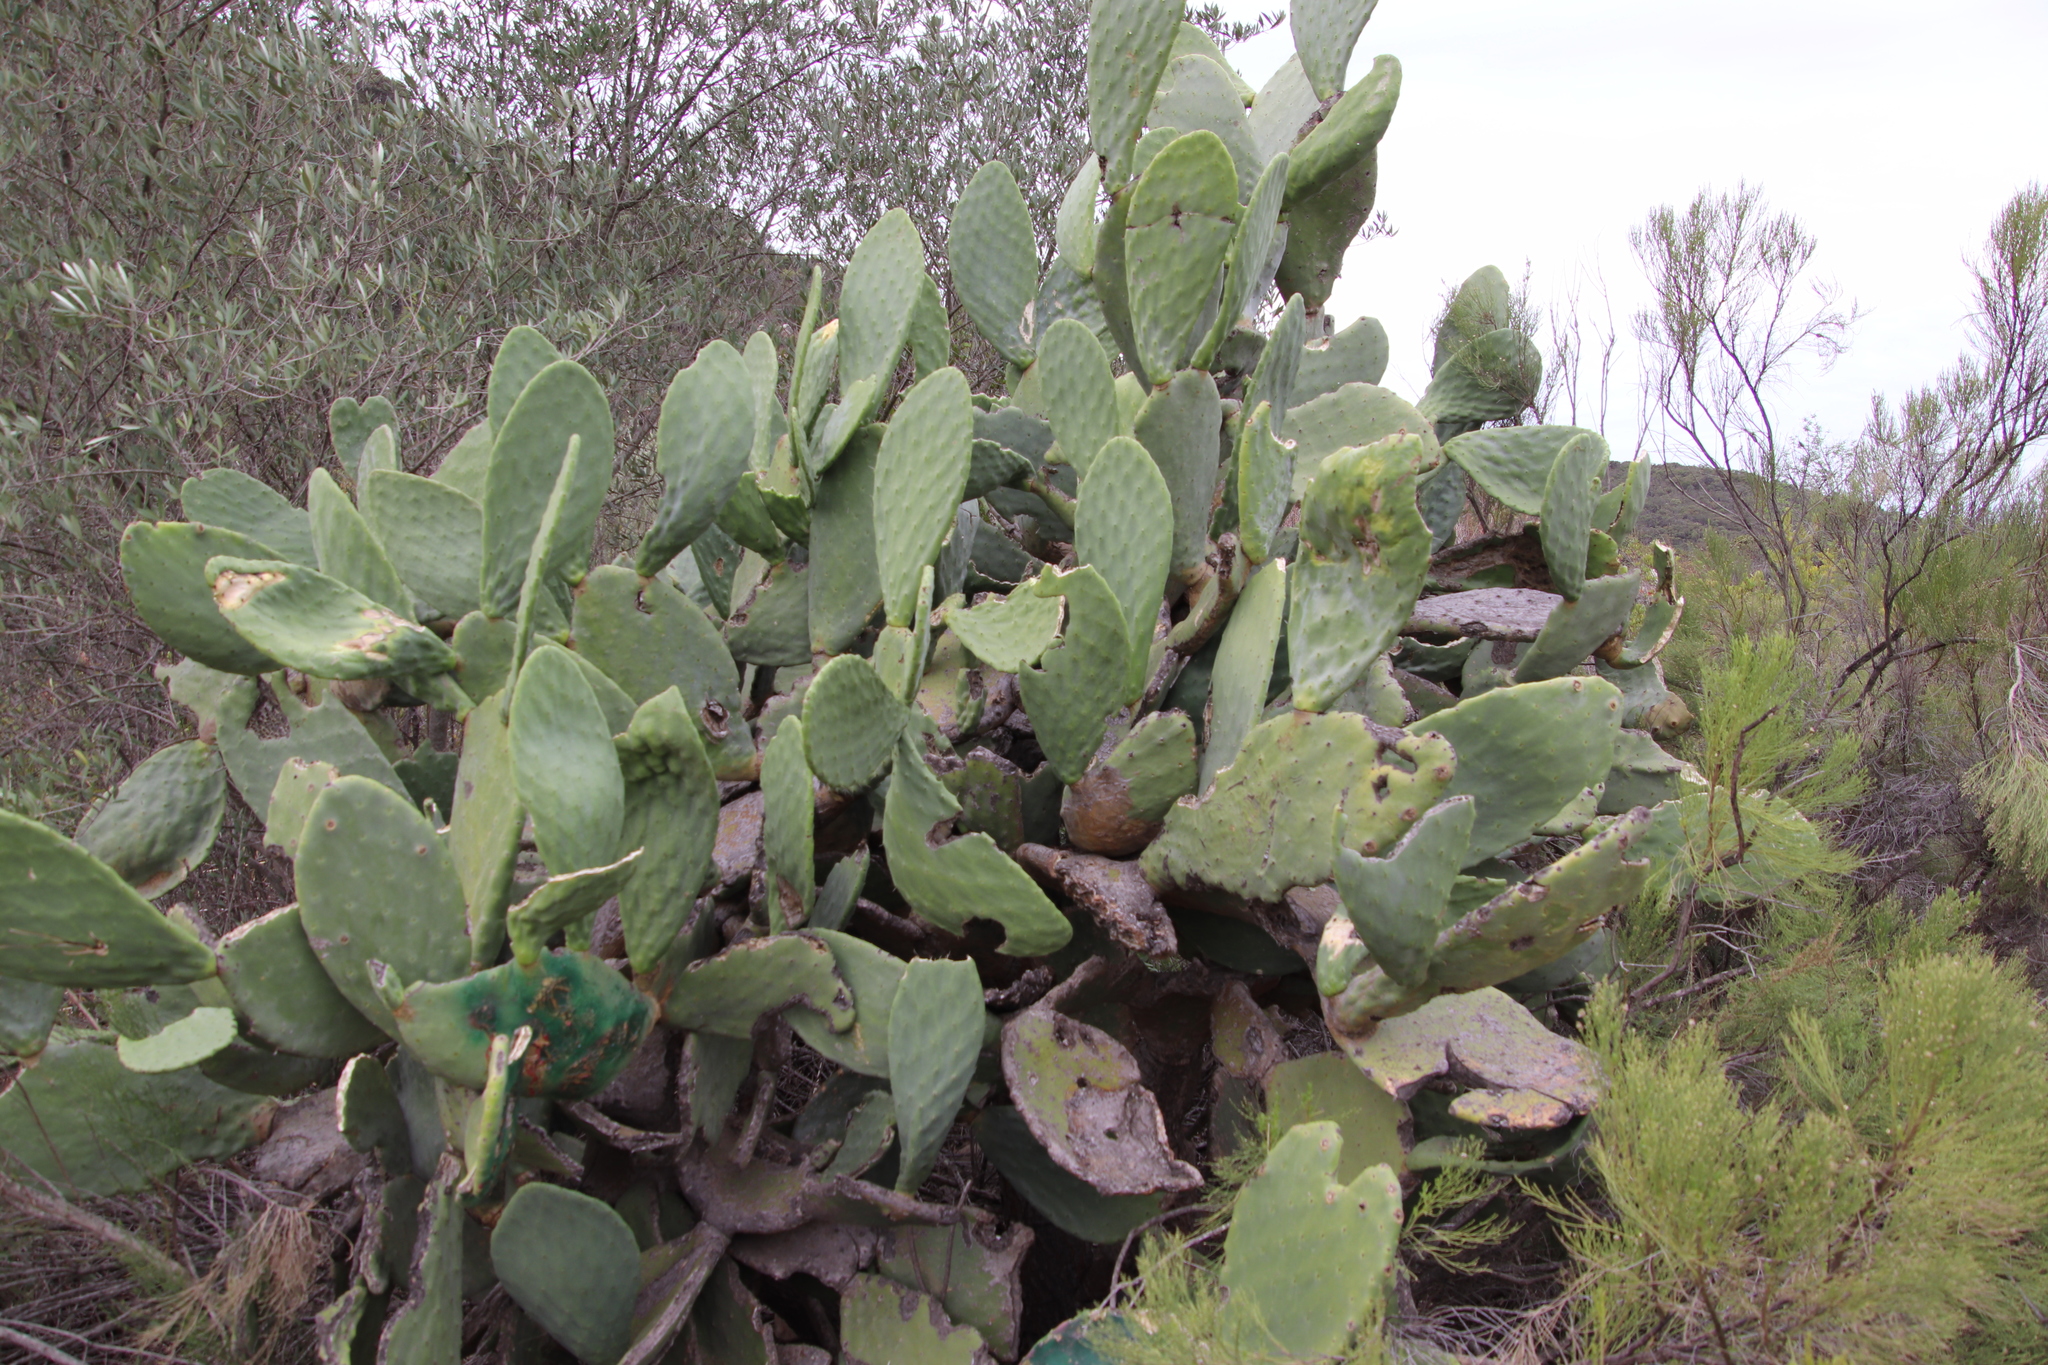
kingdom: Plantae
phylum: Tracheophyta
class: Magnoliopsida
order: Caryophyllales
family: Cactaceae
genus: Opuntia
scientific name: Opuntia ficus-indica
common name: Barbary fig
